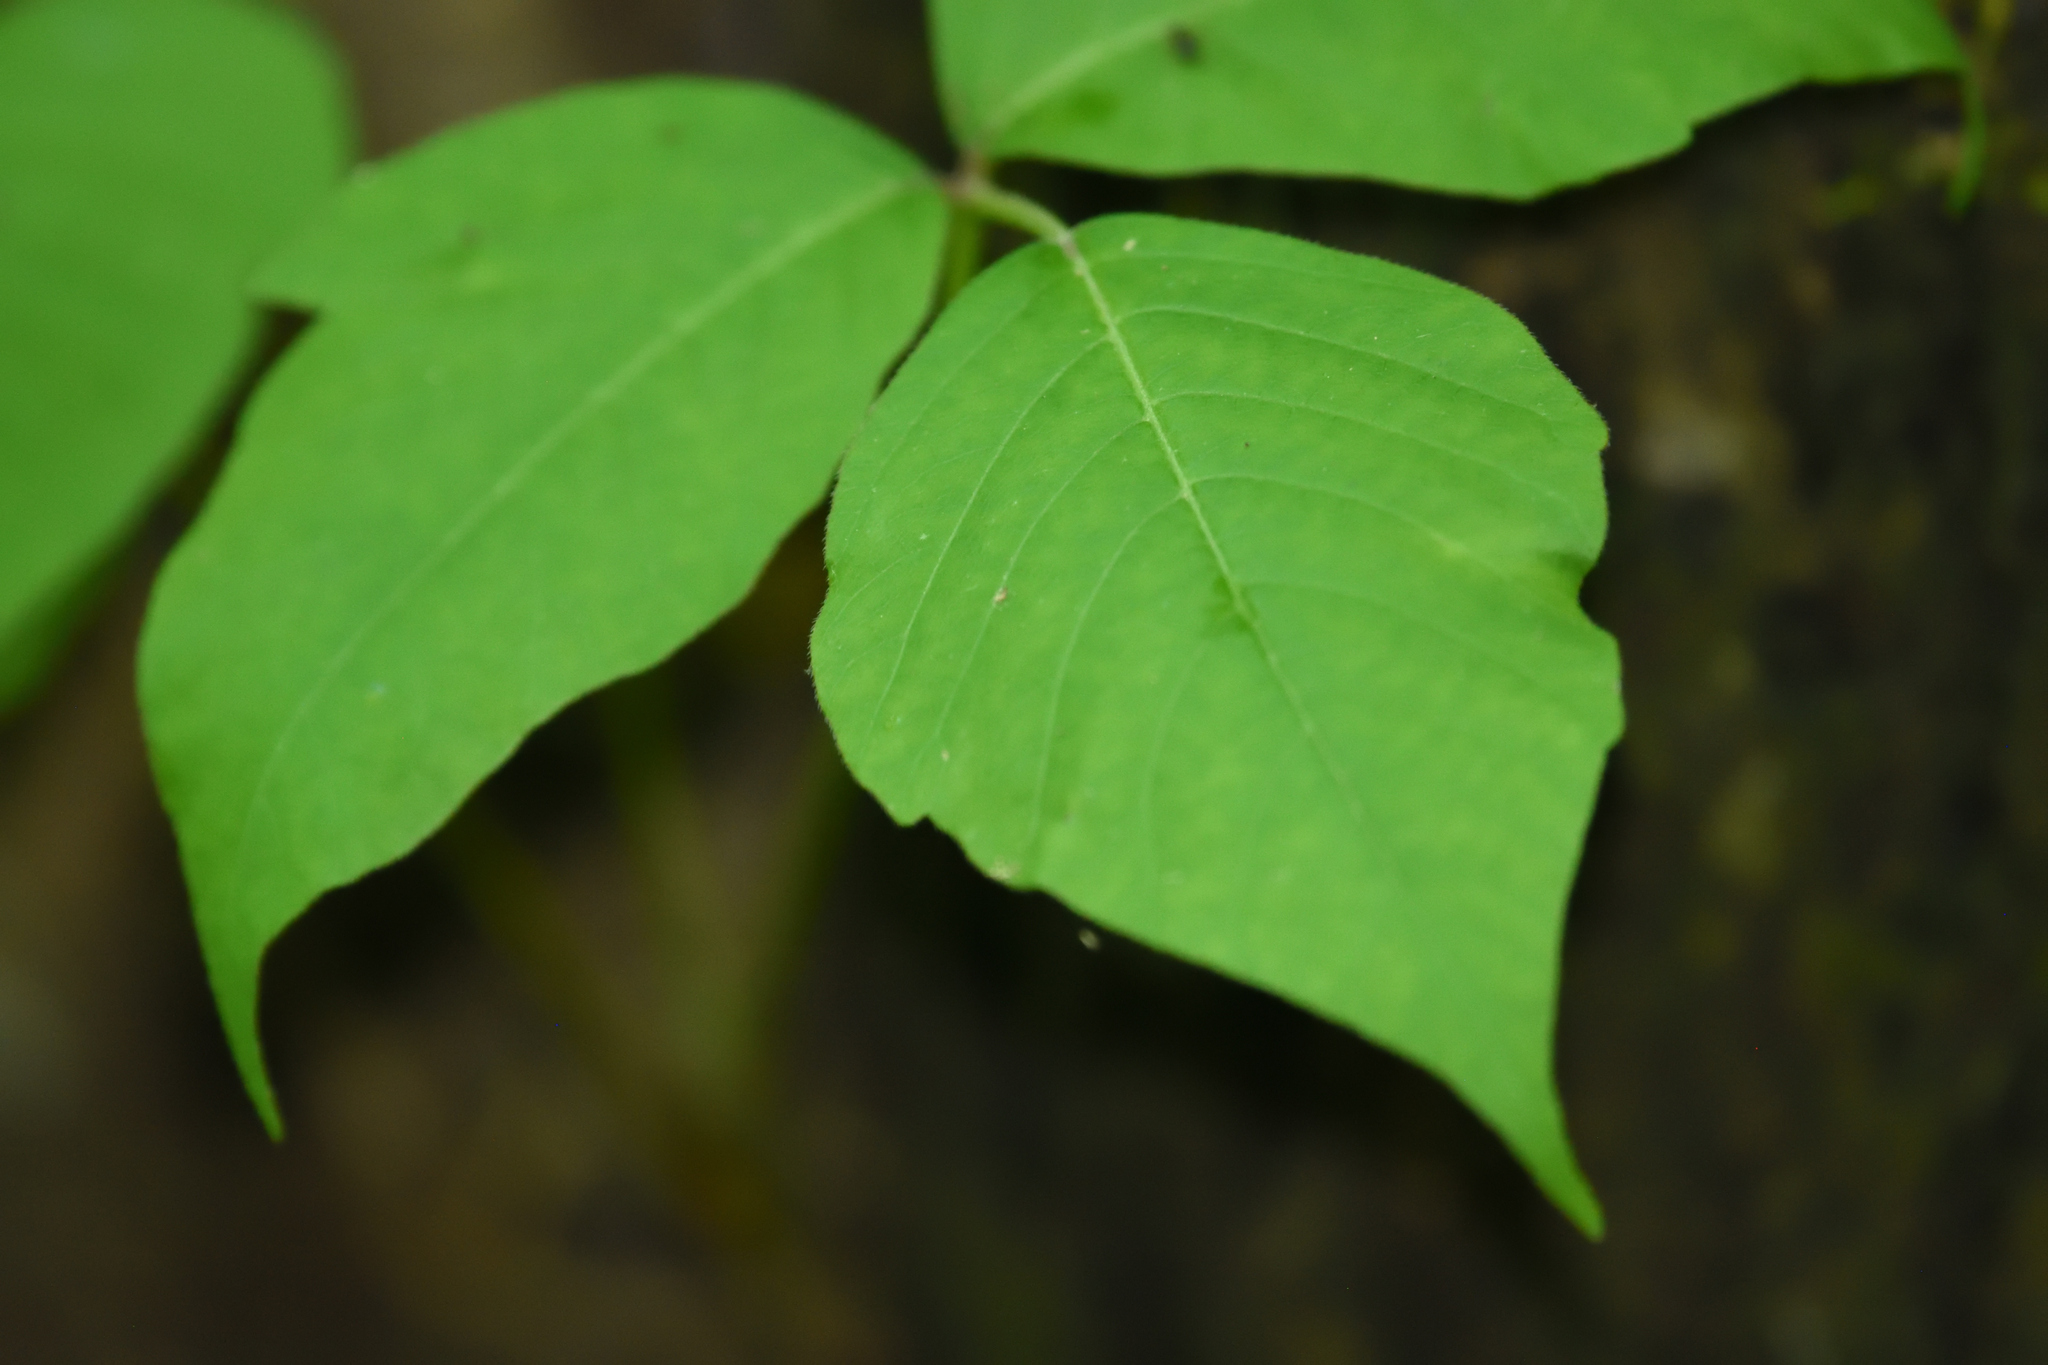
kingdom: Plantae
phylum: Tracheophyta
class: Magnoliopsida
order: Sapindales
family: Anacardiaceae
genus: Toxicodendron
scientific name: Toxicodendron radicans
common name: Poison ivy
